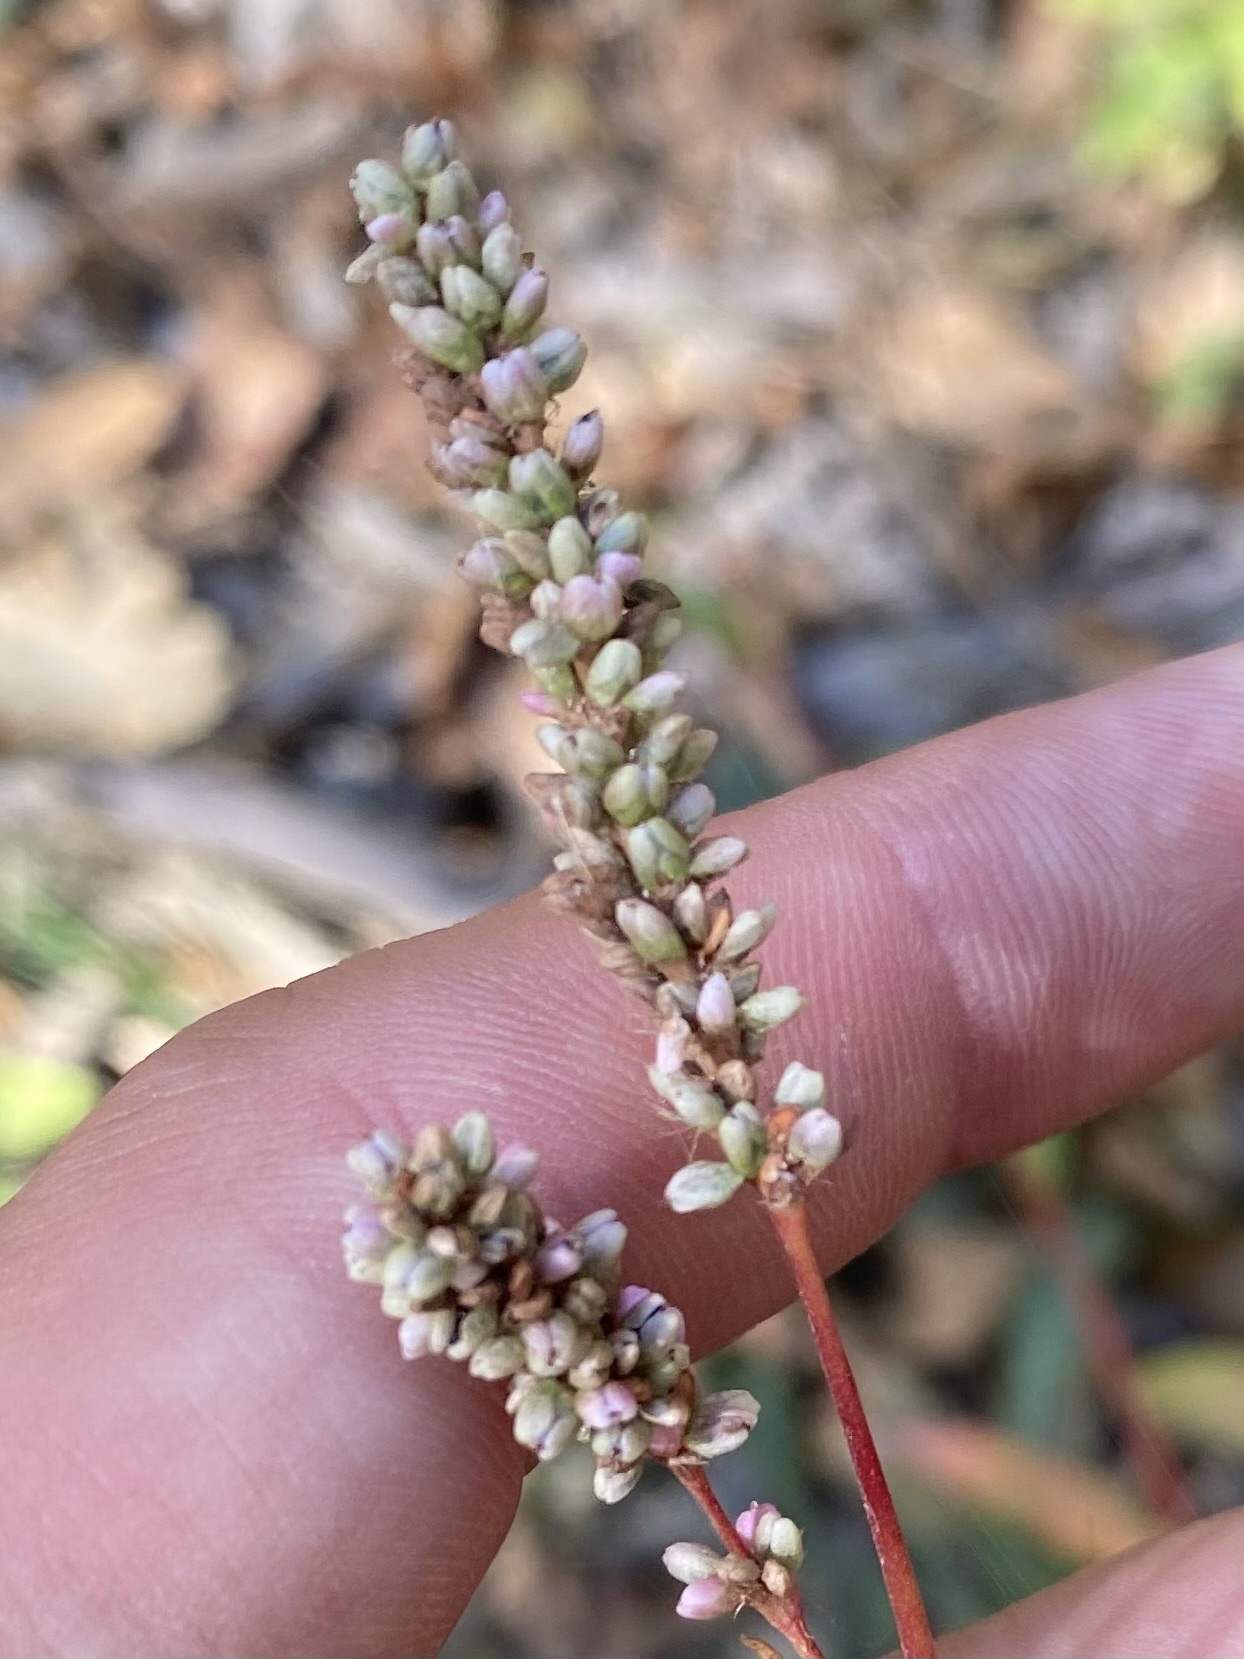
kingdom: Plantae
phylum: Tracheophyta
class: Magnoliopsida
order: Caryophyllales
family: Polygonaceae
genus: Persicaria
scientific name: Persicaria maculosa
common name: Redshank
